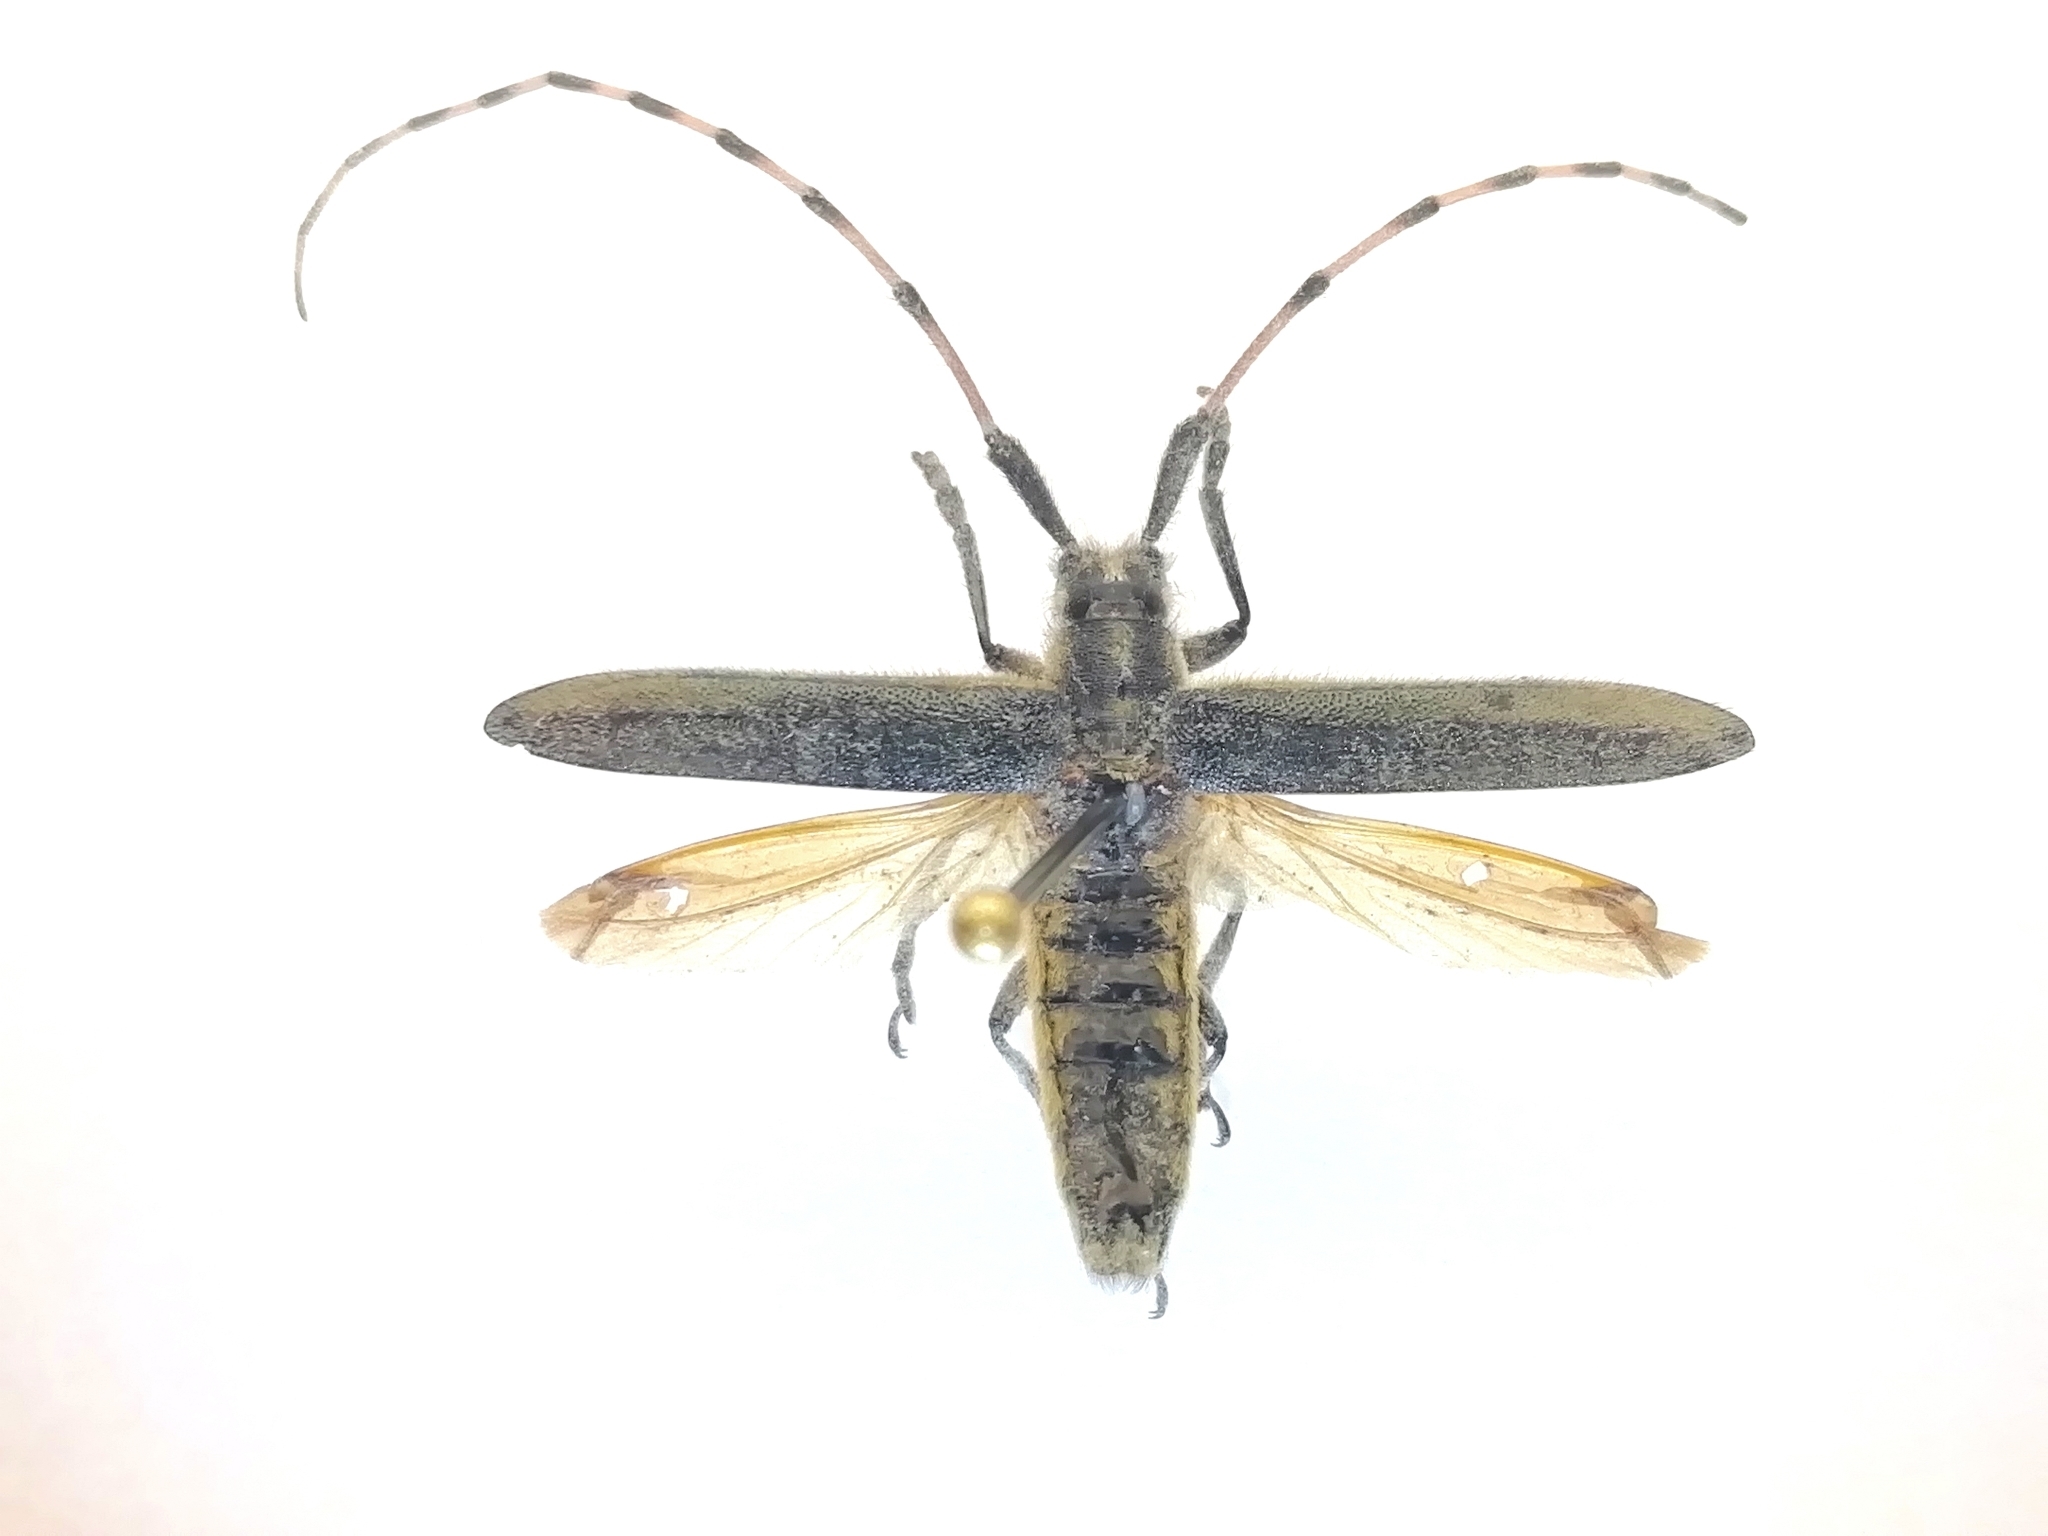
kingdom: Animalia
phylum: Arthropoda
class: Insecta
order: Coleoptera
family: Cerambycidae
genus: Agapanthia
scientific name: Agapanthia dahlii
